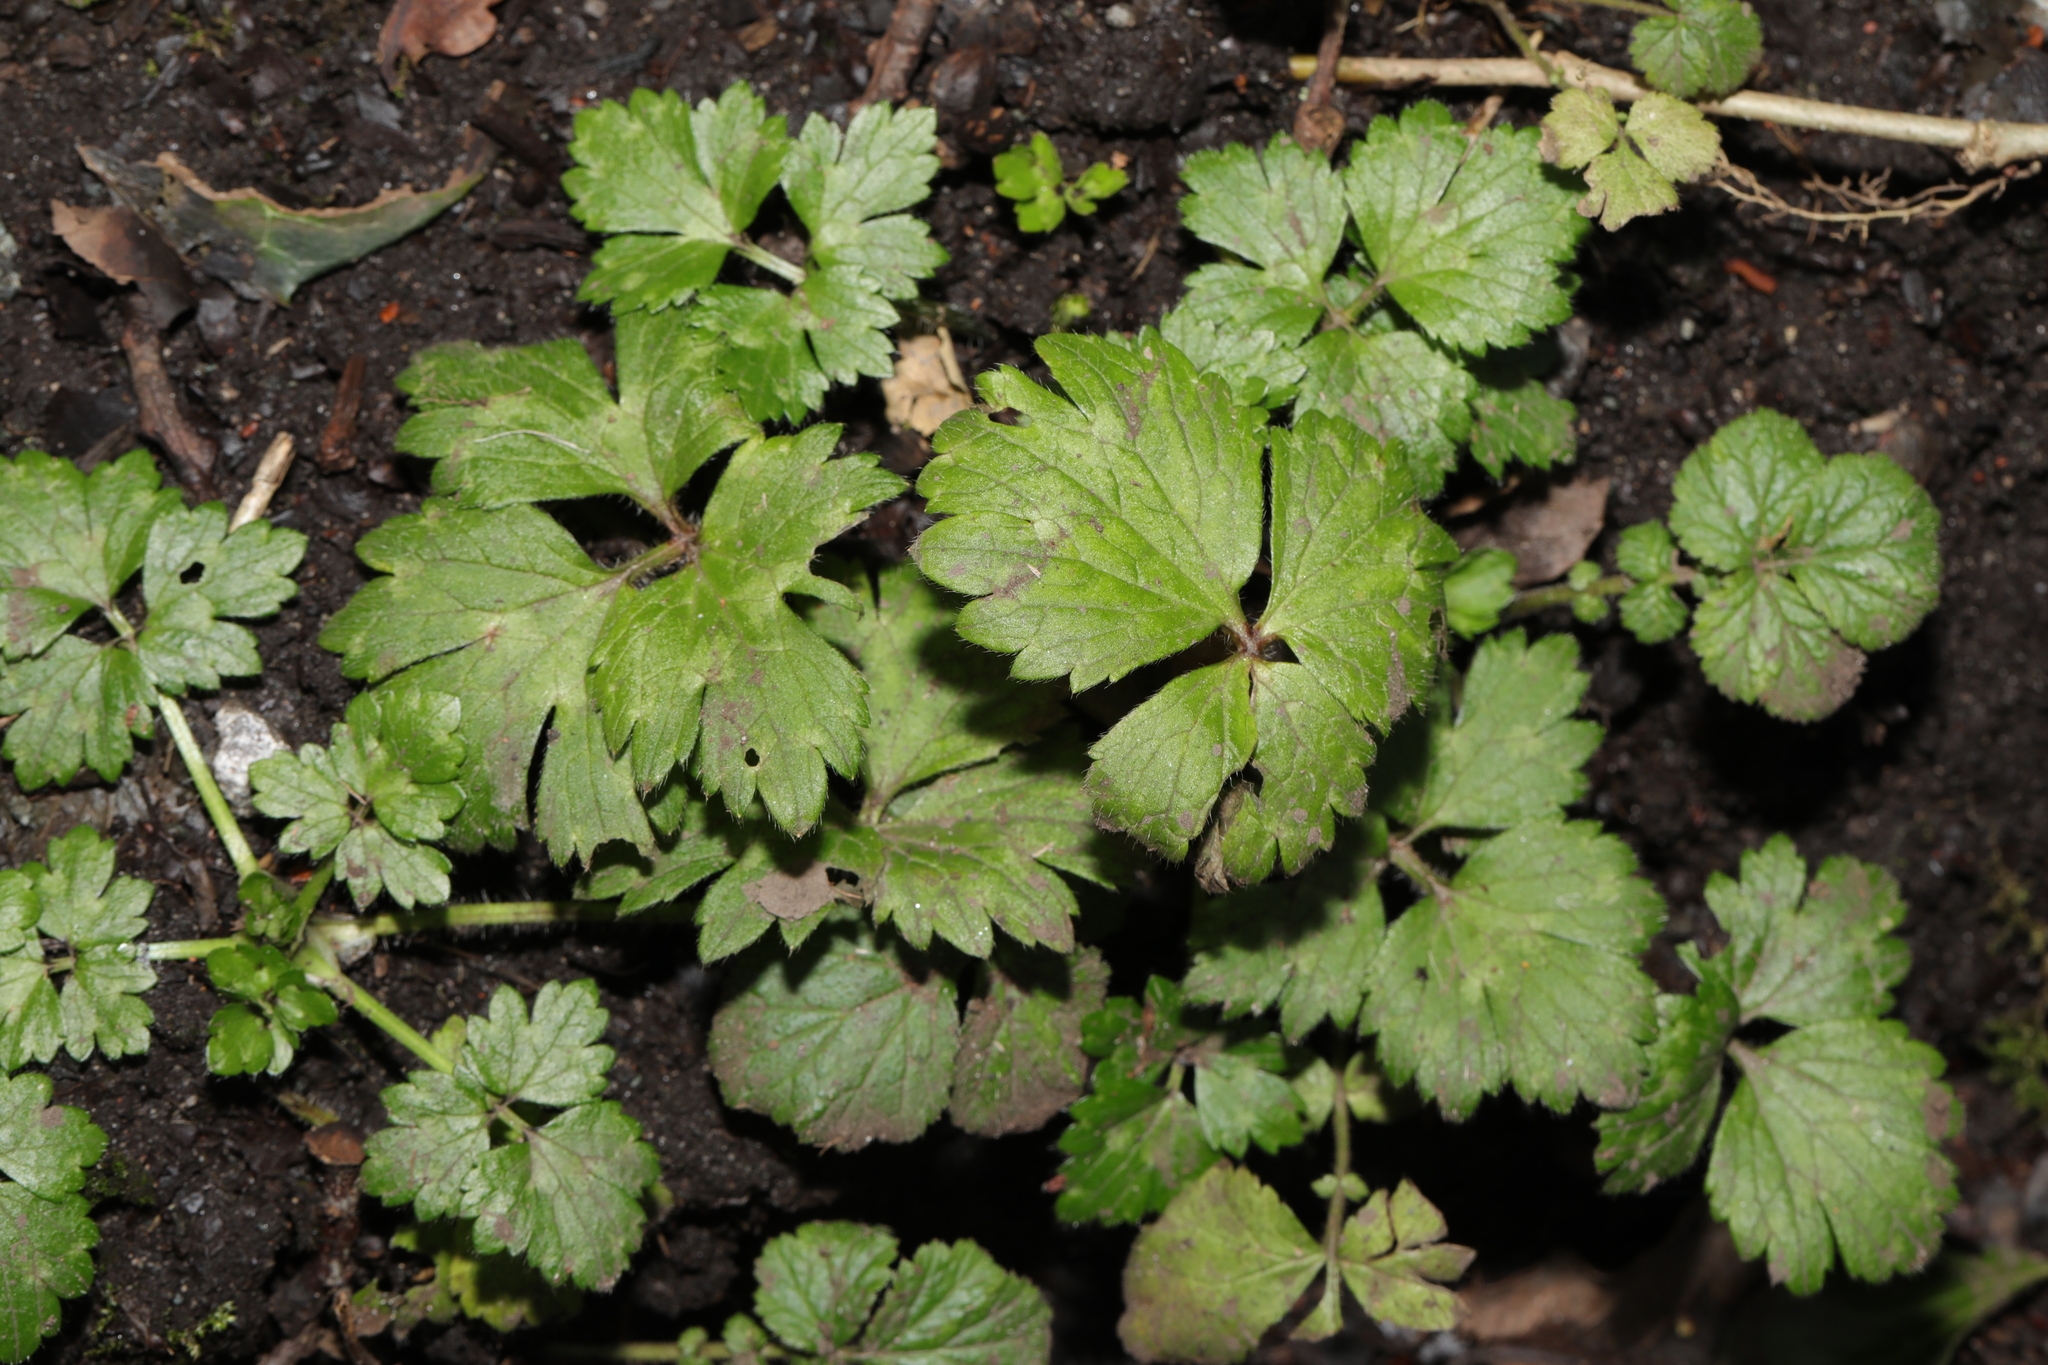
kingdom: Plantae
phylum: Tracheophyta
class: Magnoliopsida
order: Ranunculales
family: Ranunculaceae
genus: Ranunculus
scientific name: Ranunculus repens
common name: Creeping buttercup
